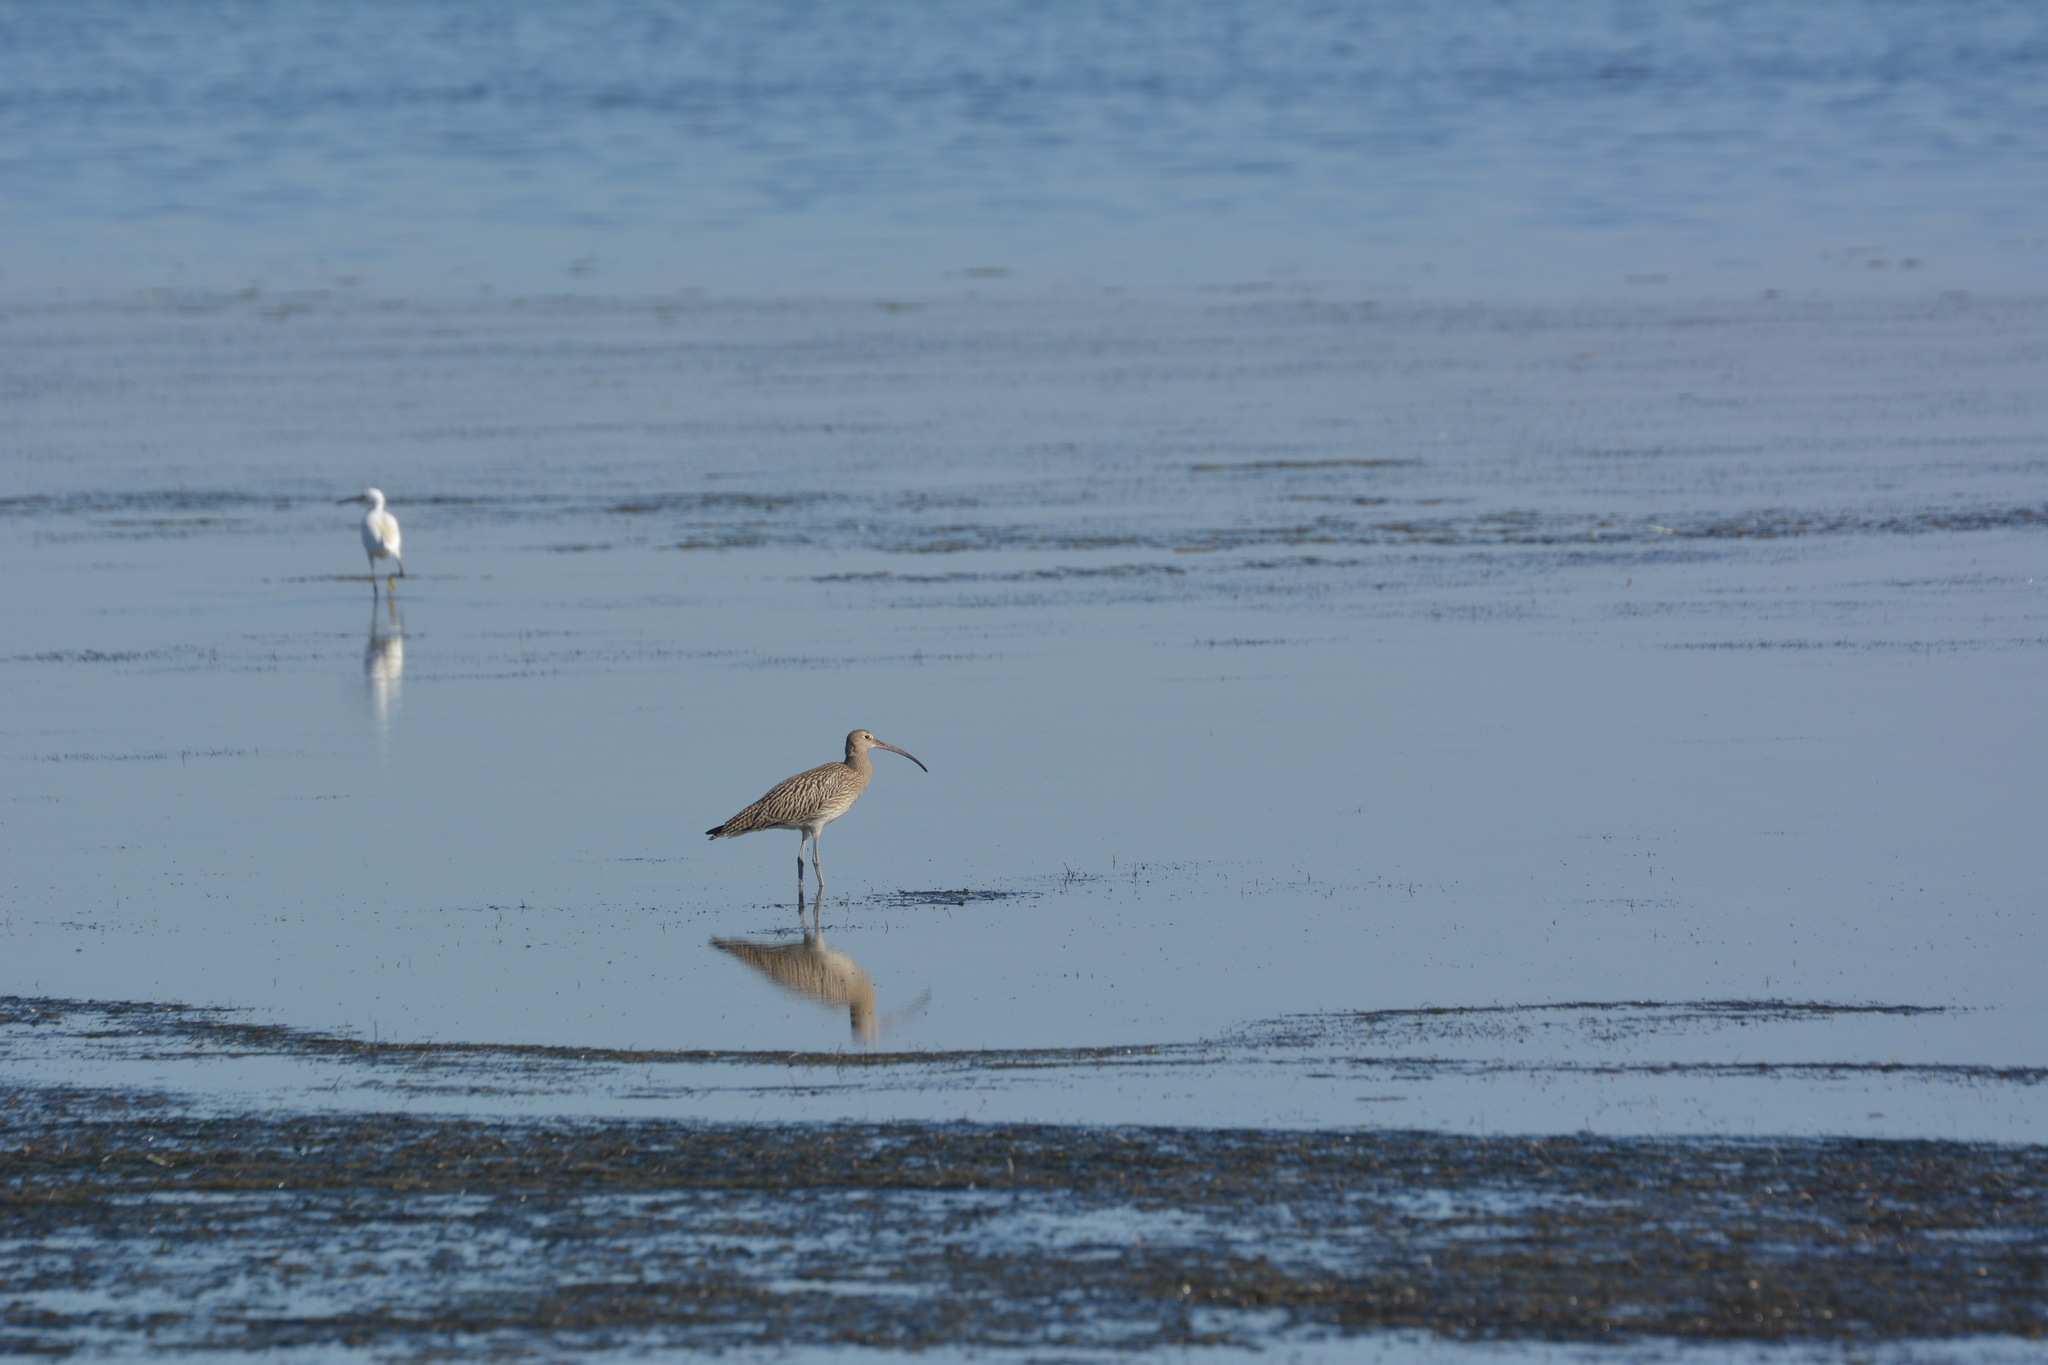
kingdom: Animalia
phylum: Chordata
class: Aves
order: Charadriiformes
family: Scolopacidae
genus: Numenius
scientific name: Numenius arquata
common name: Eurasian curlew
